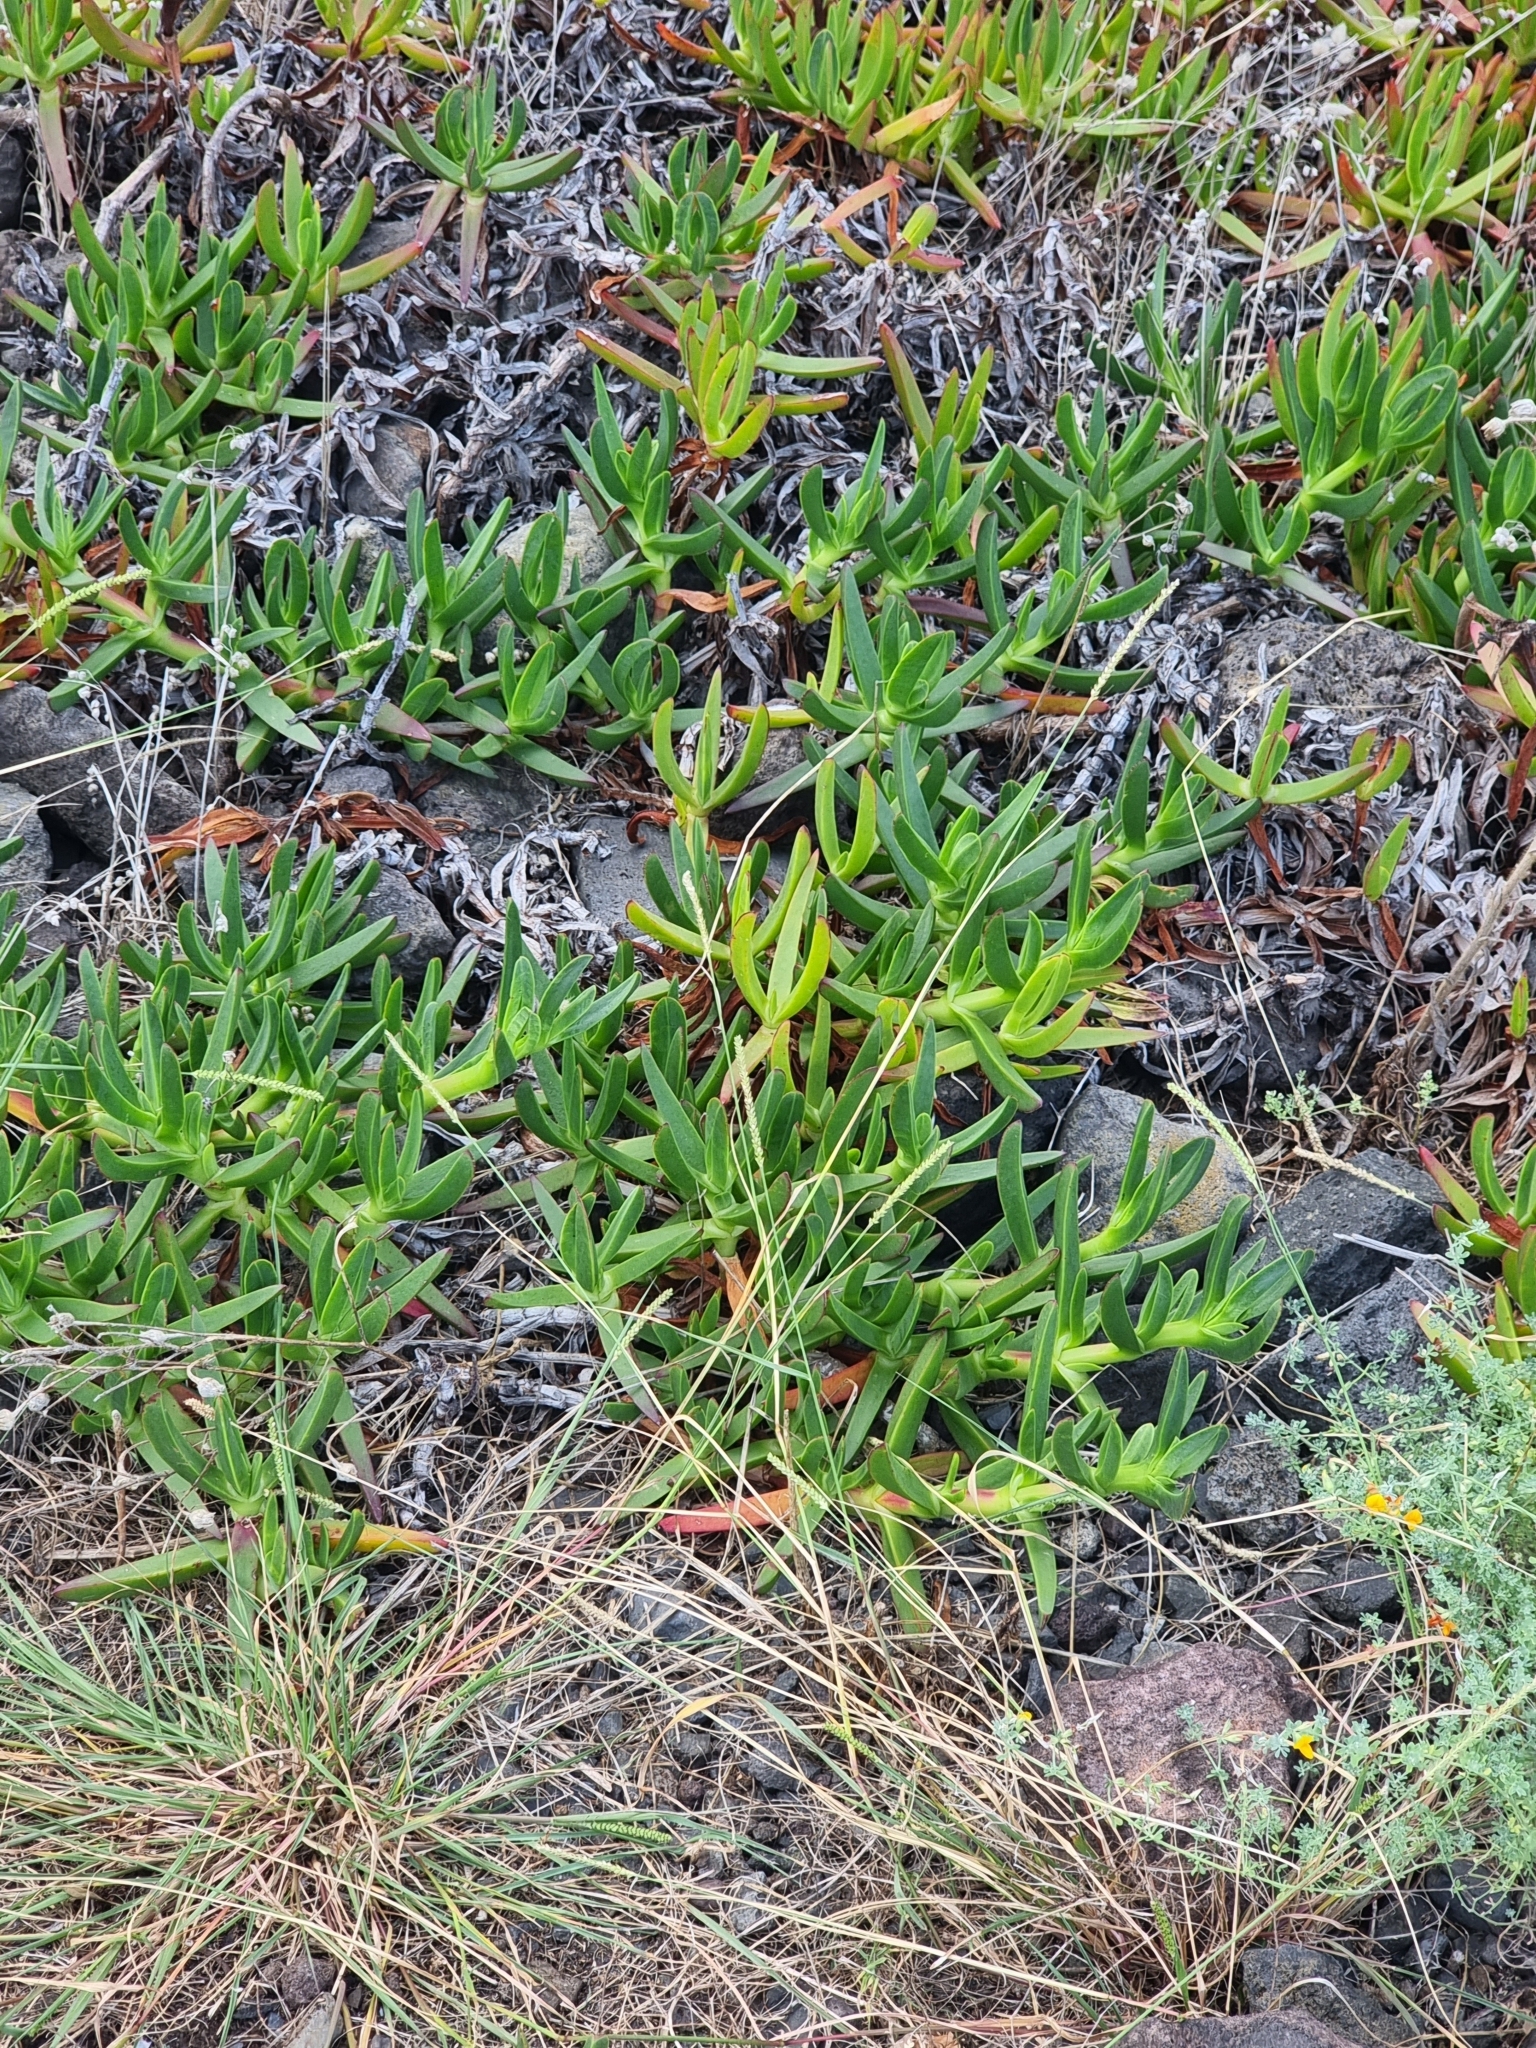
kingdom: Plantae
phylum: Tracheophyta
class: Magnoliopsida
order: Caryophyllales
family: Aizoaceae
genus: Carpobrotus
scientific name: Carpobrotus edulis
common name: Hottentot-fig
